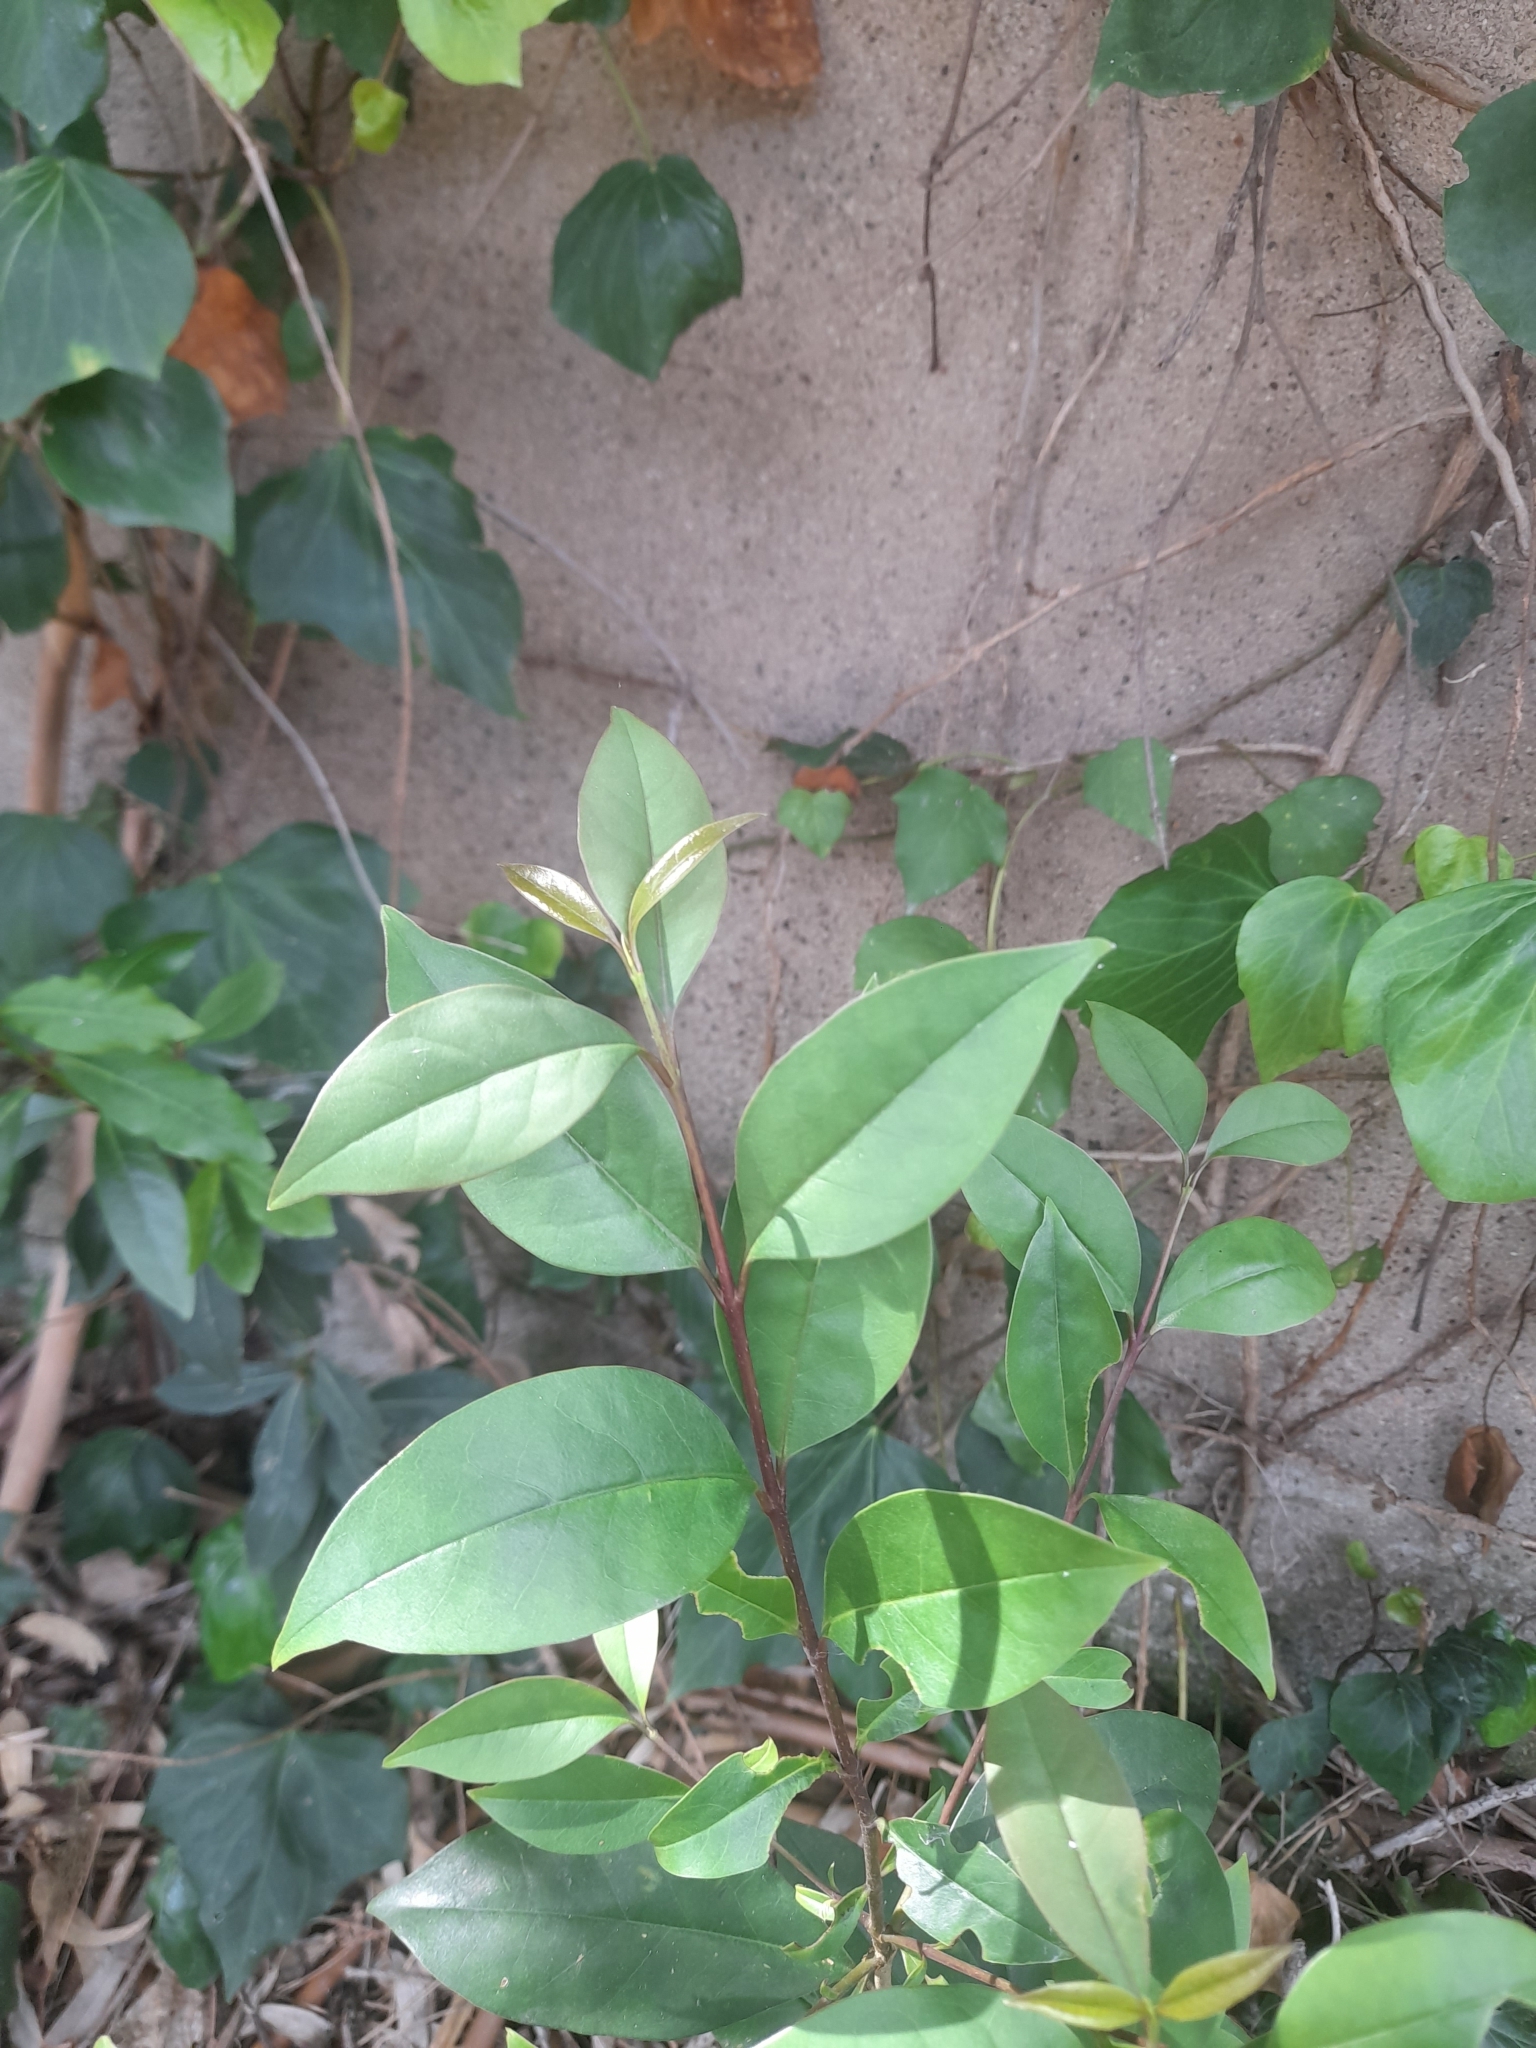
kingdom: Plantae
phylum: Tracheophyta
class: Magnoliopsida
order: Lamiales
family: Oleaceae
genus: Ligustrum
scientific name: Ligustrum lucidum
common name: Glossy privet
